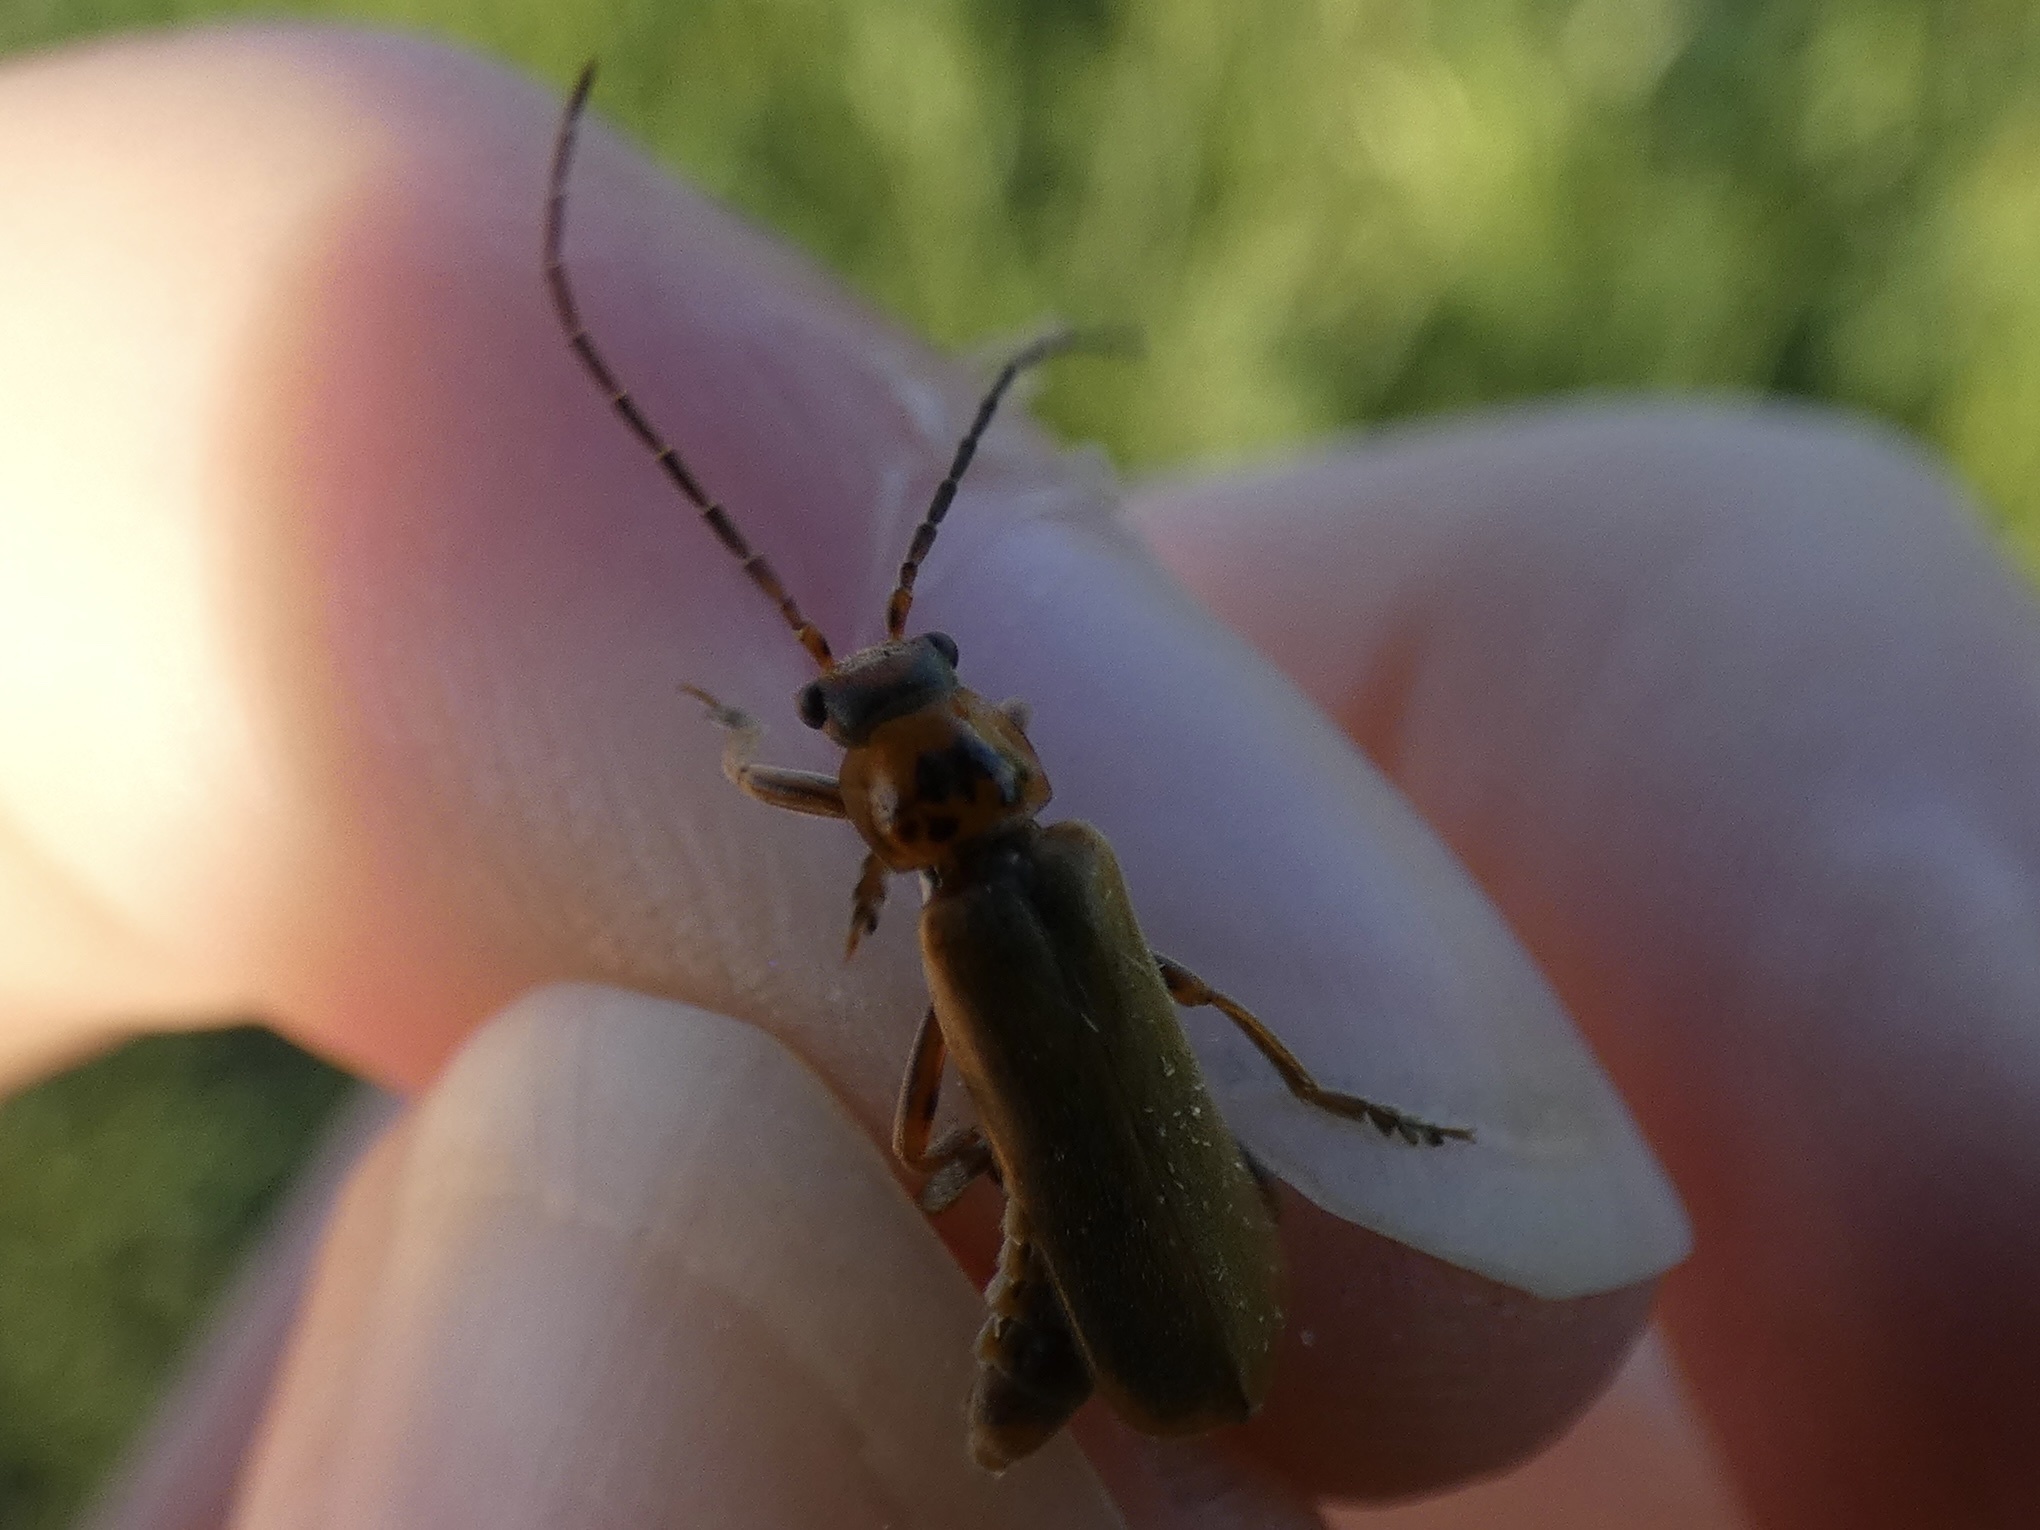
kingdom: Animalia
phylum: Arthropoda
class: Insecta
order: Coleoptera
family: Cantharidae
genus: Cantharis
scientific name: Cantharis rustica
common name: Soldier beetle
